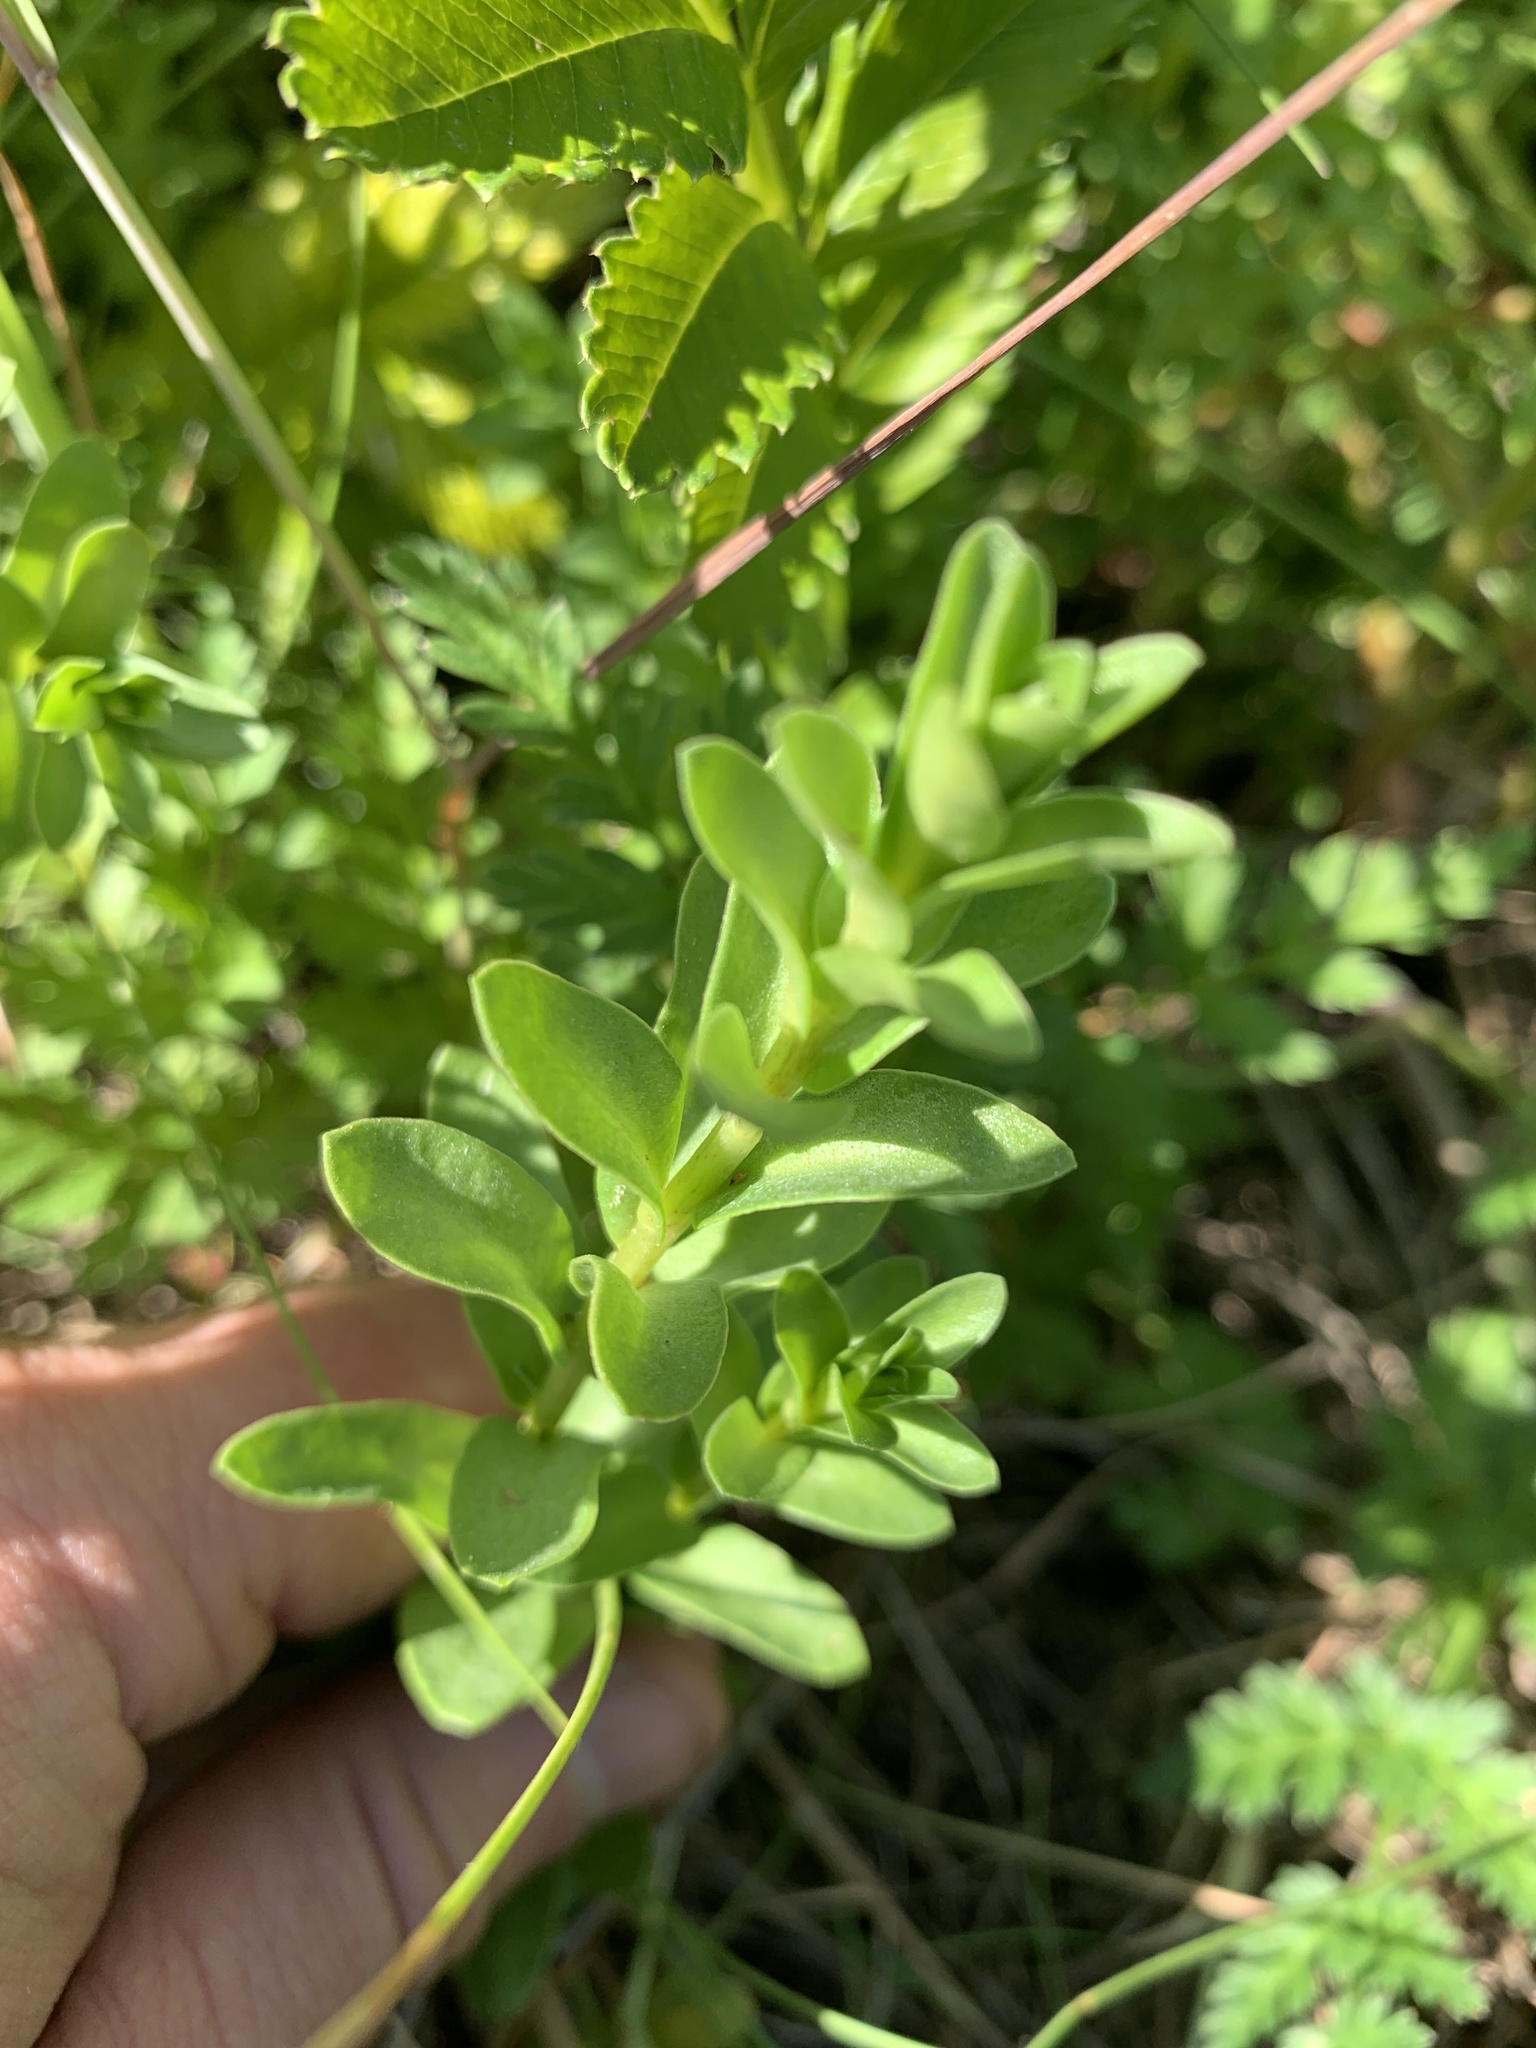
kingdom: Plantae
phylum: Tracheophyta
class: Magnoliopsida
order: Ericales
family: Primulaceae
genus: Lysimachia
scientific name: Lysimachia maritima
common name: Sea milkwort
